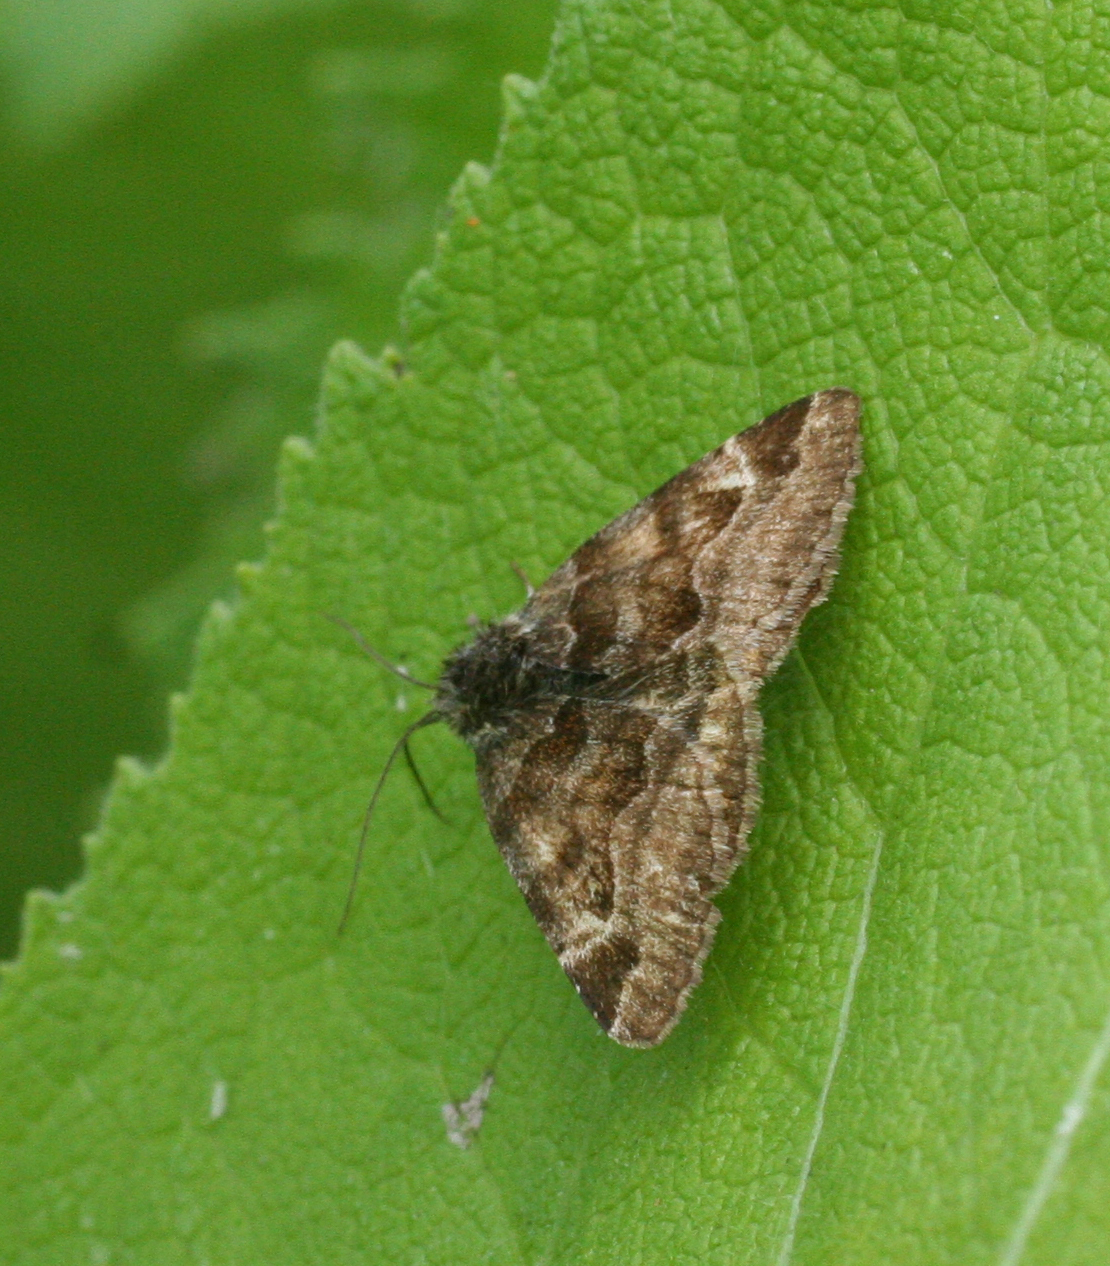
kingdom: Animalia
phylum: Arthropoda
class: Insecta
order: Lepidoptera
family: Erebidae
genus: Euclidia
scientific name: Euclidia glyphica
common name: Burnet companion
